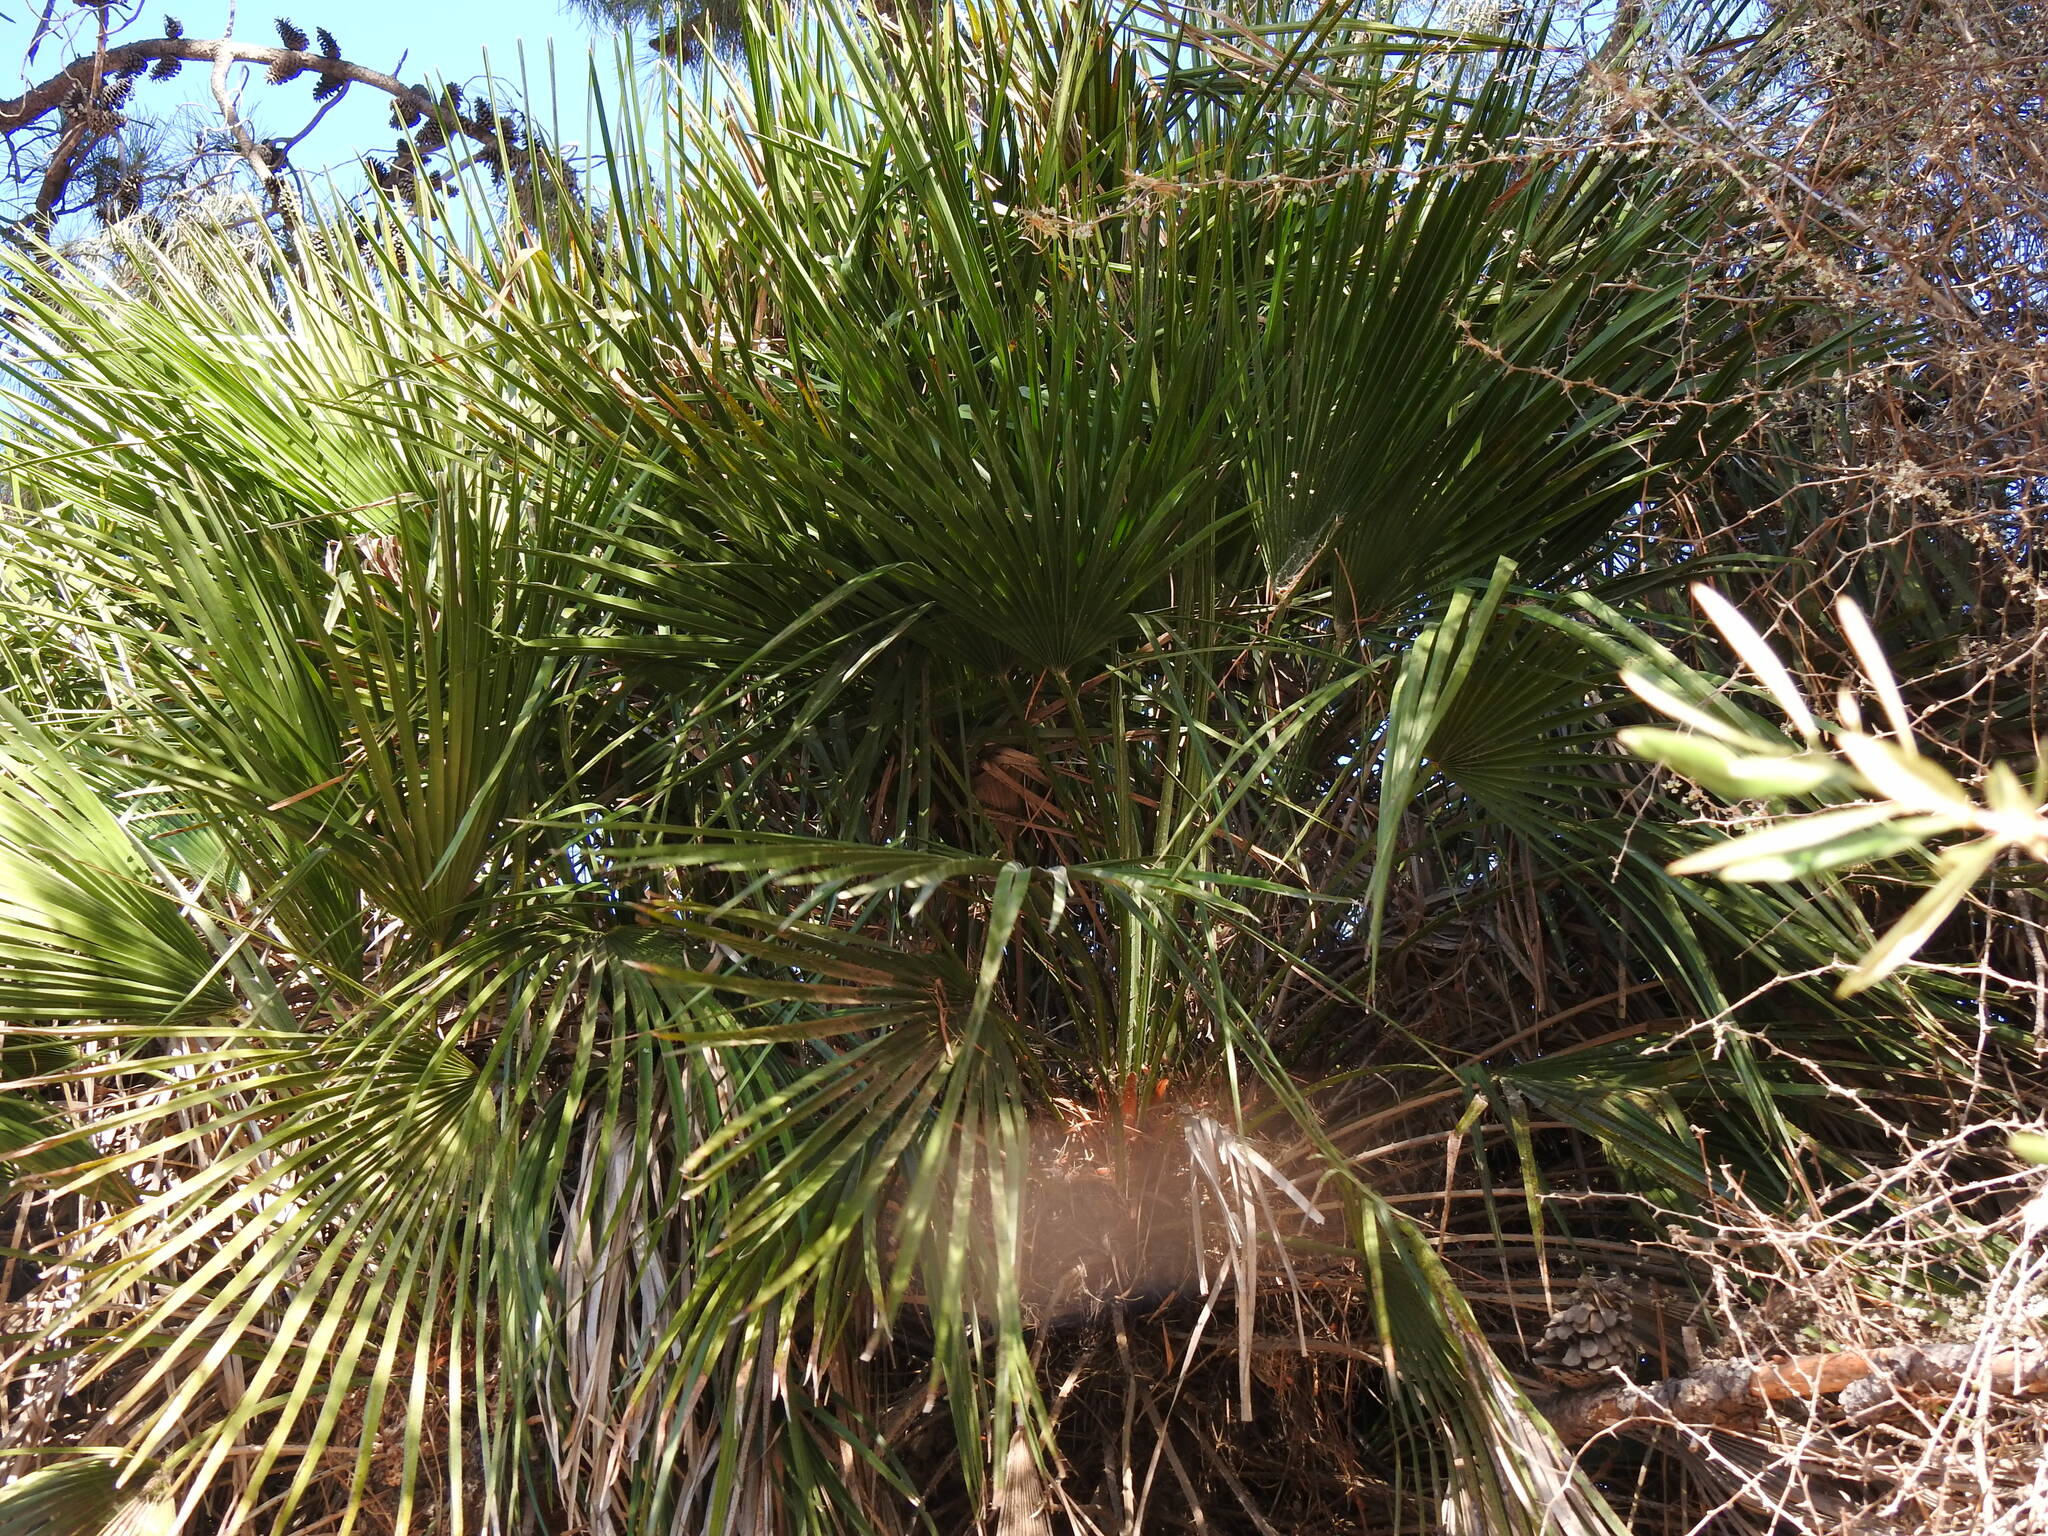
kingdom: Plantae
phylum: Tracheophyta
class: Liliopsida
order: Arecales
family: Arecaceae
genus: Chamaerops
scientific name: Chamaerops humilis
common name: Dwarf fan palm
